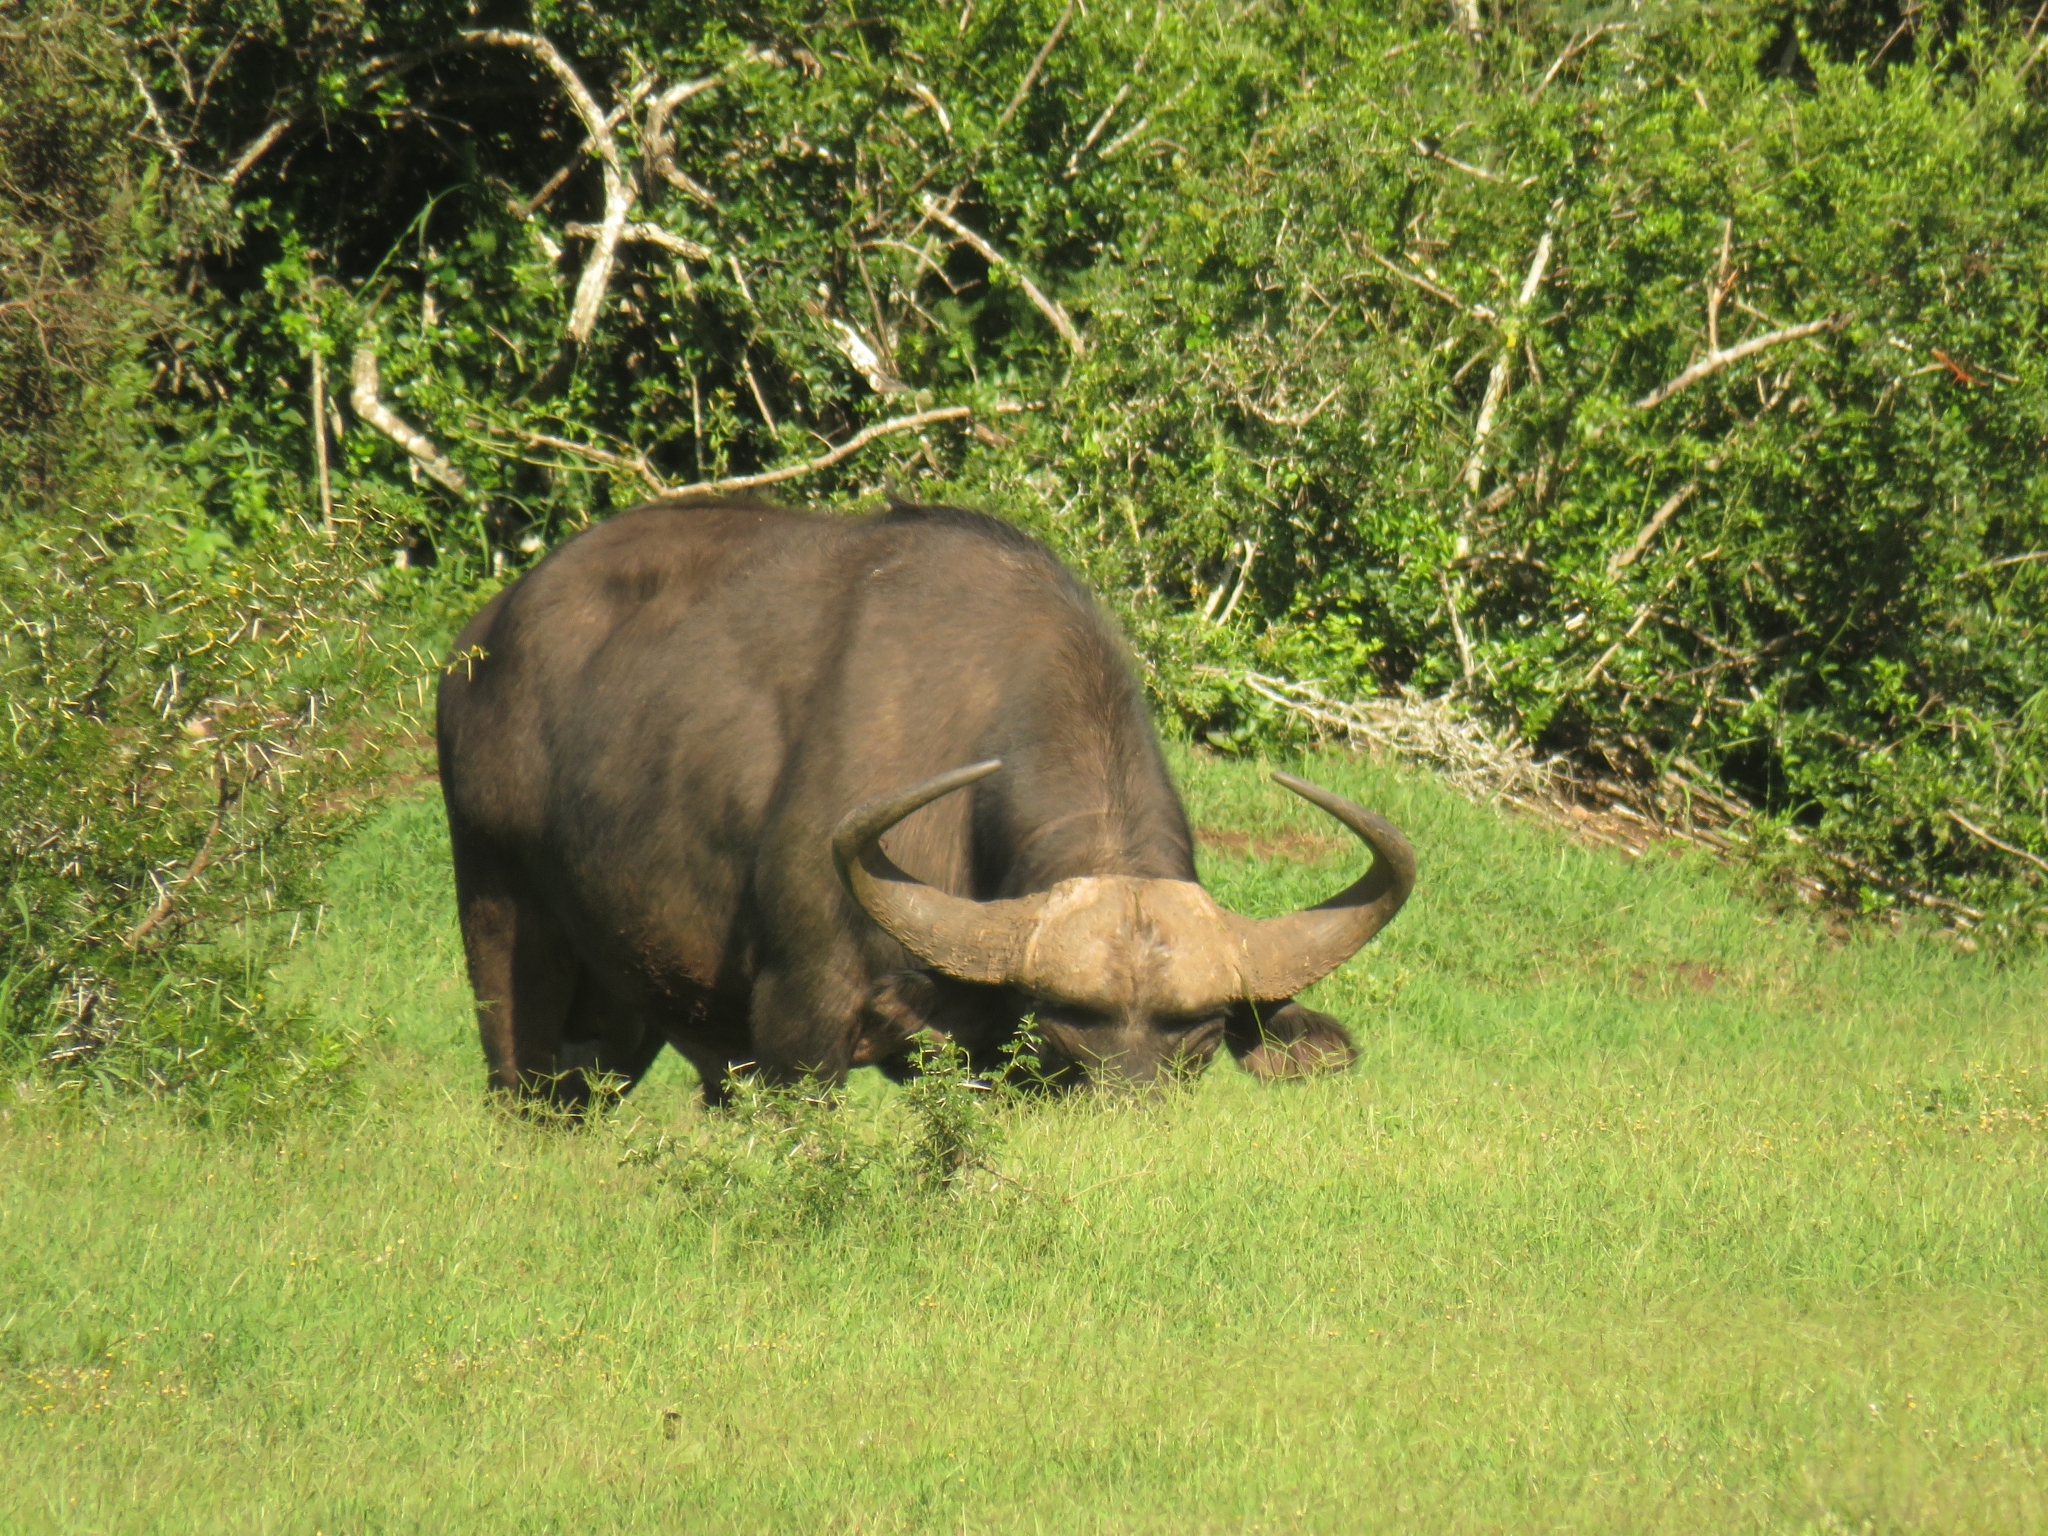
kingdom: Animalia
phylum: Chordata
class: Mammalia
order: Artiodactyla
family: Bovidae
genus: Syncerus
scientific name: Syncerus caffer
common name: African buffalo
